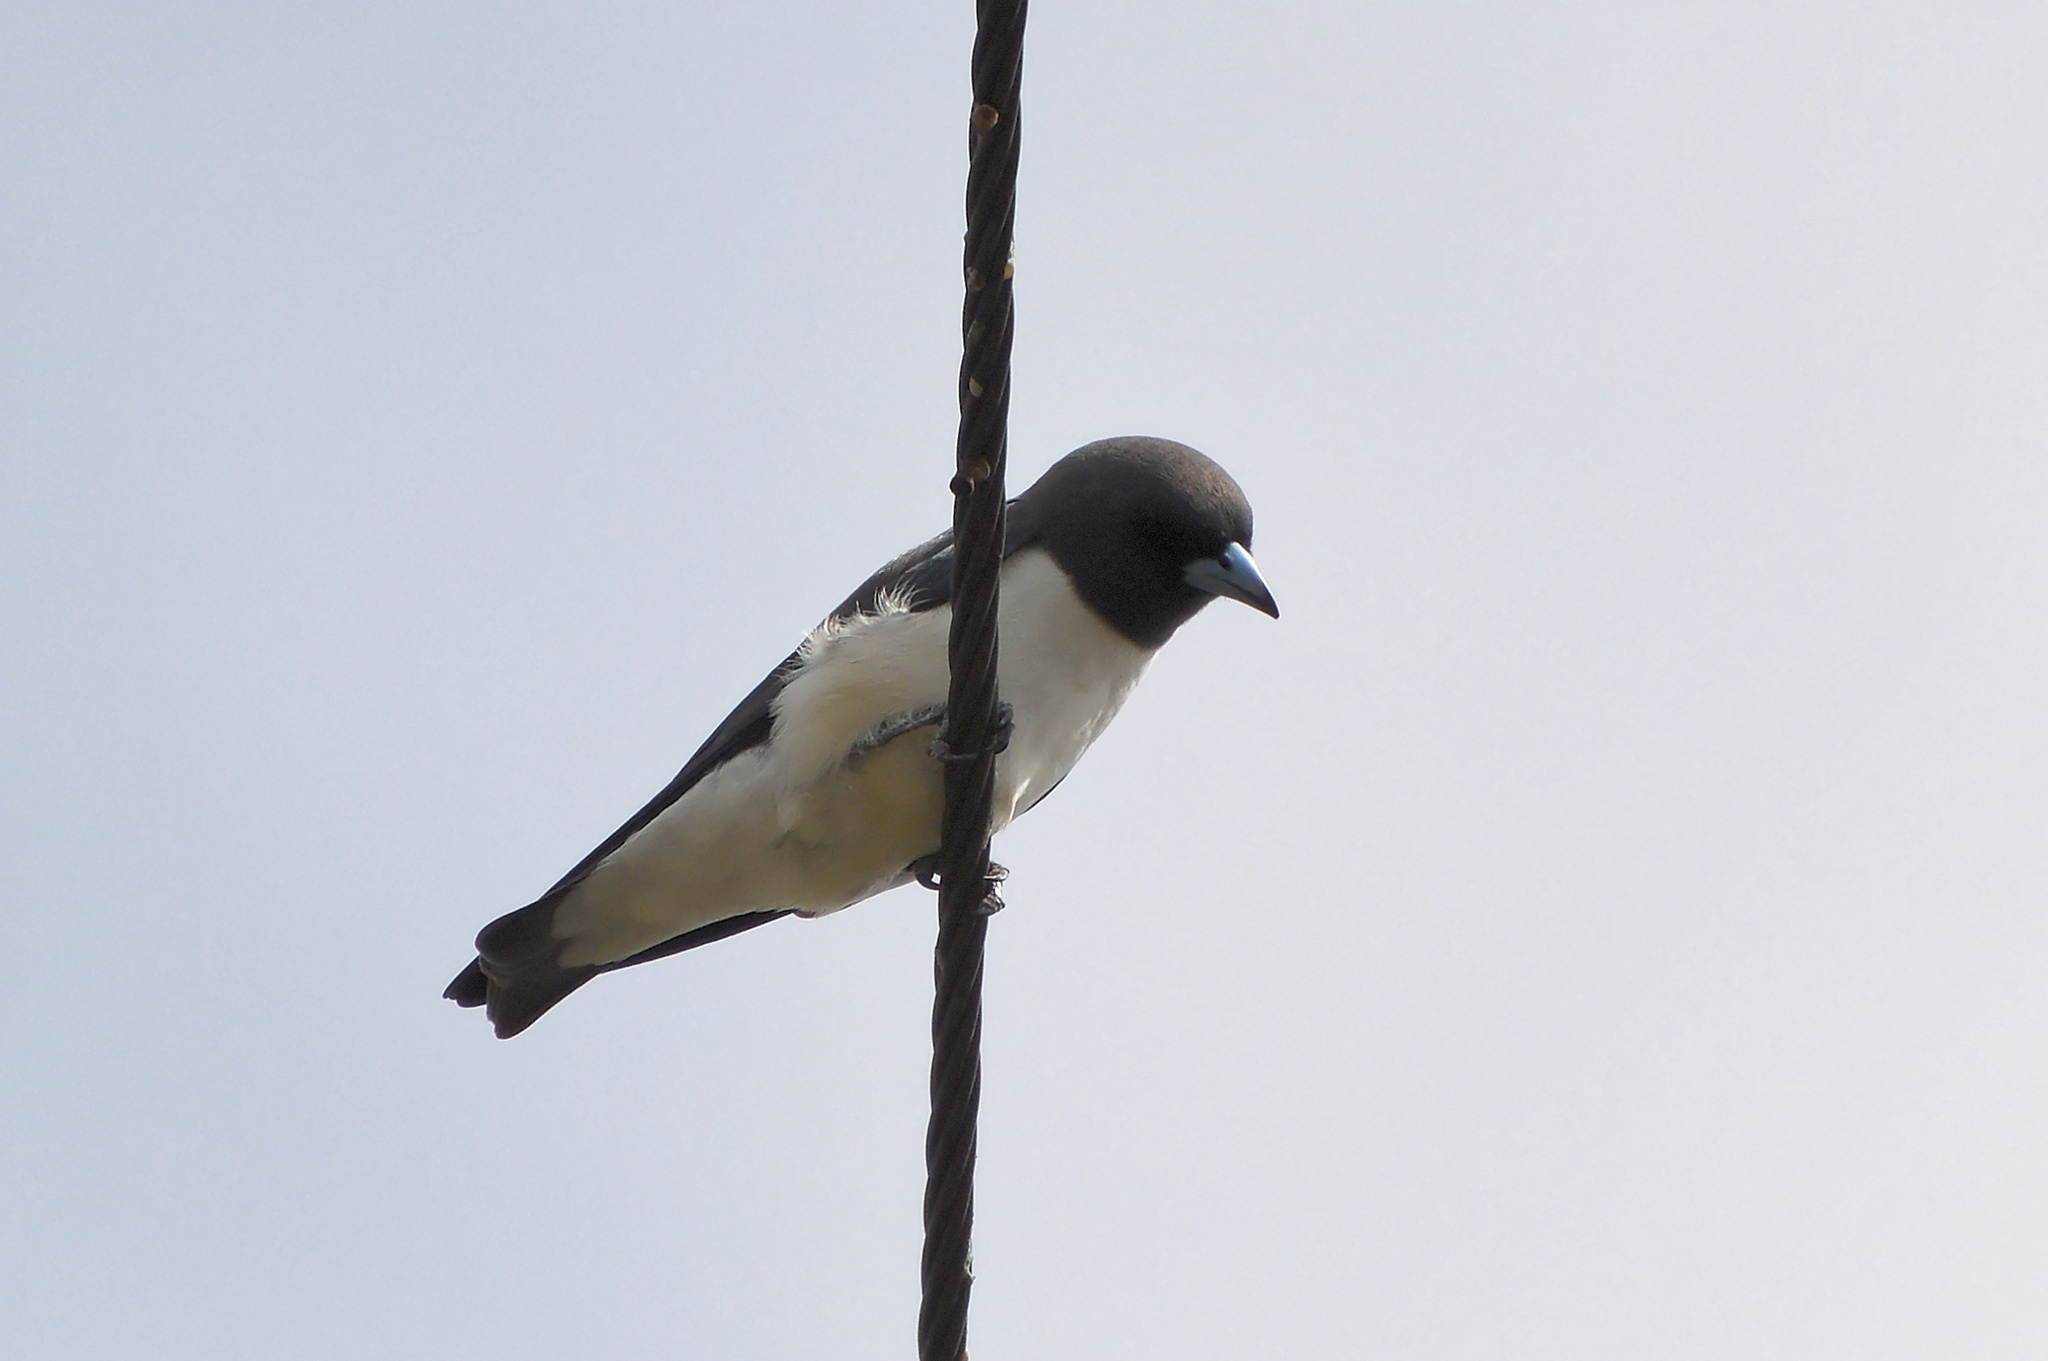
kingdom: Animalia
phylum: Chordata
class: Aves
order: Passeriformes
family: Artamidae
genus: Artamus
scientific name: Artamus leucoryn
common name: White-breasted woodswallow
